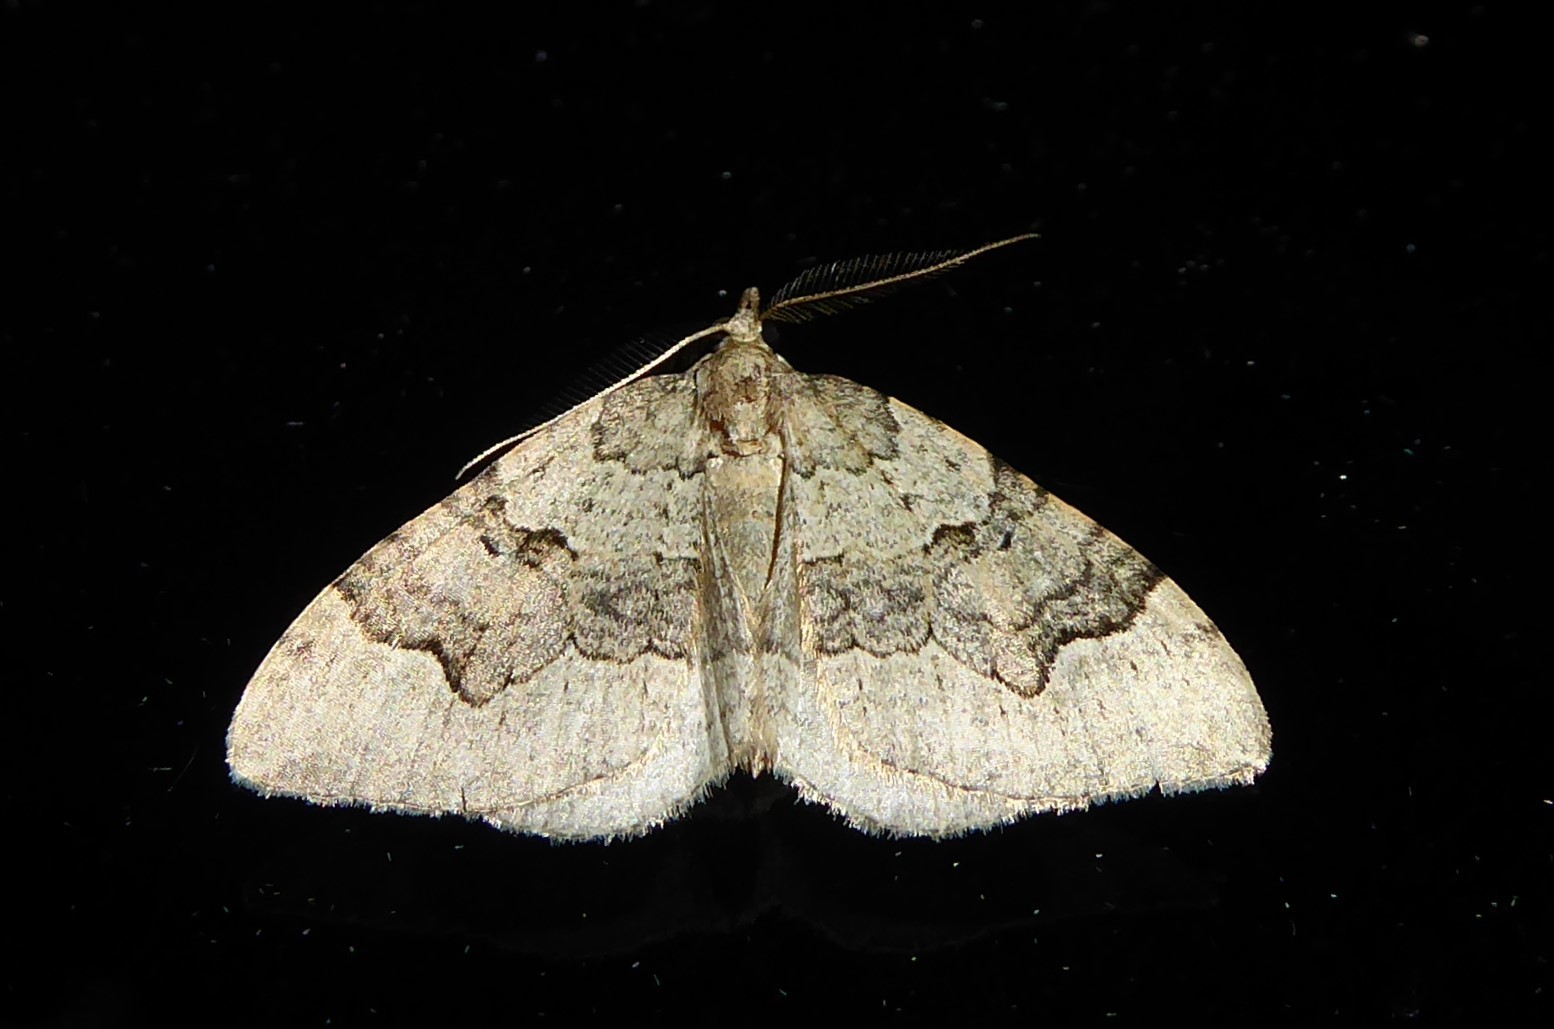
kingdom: Animalia
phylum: Arthropoda
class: Insecta
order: Lepidoptera
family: Geometridae
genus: Epyaxa
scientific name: Epyaxa rosearia
